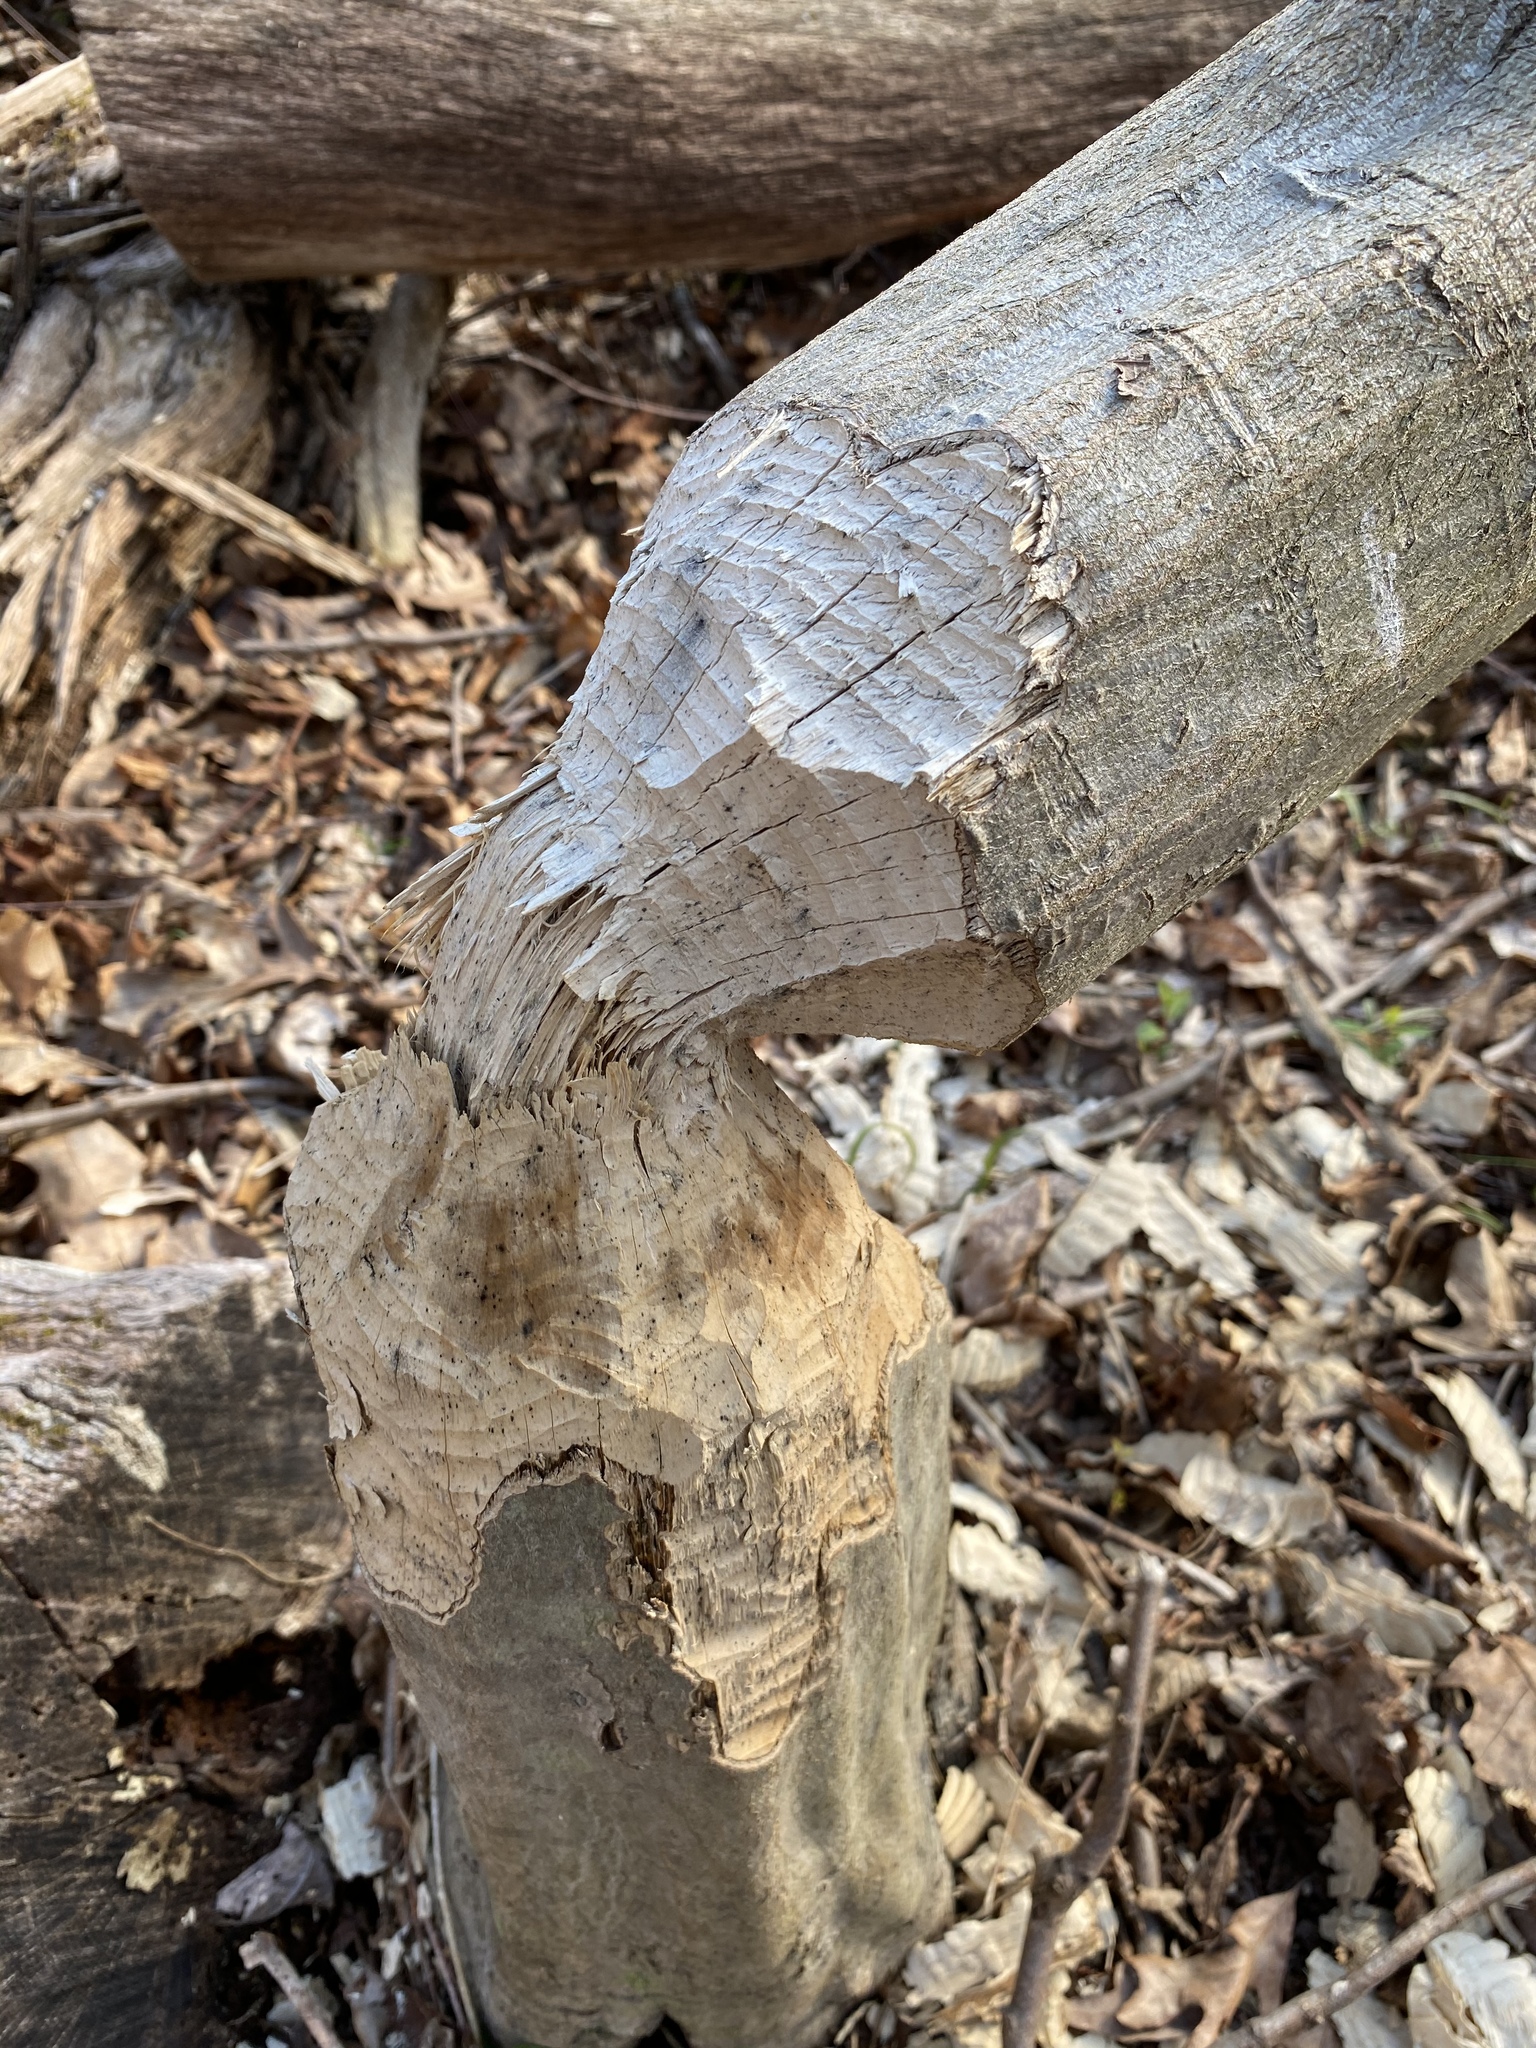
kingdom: Animalia
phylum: Chordata
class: Mammalia
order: Rodentia
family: Castoridae
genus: Castor
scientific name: Castor canadensis
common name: American beaver
